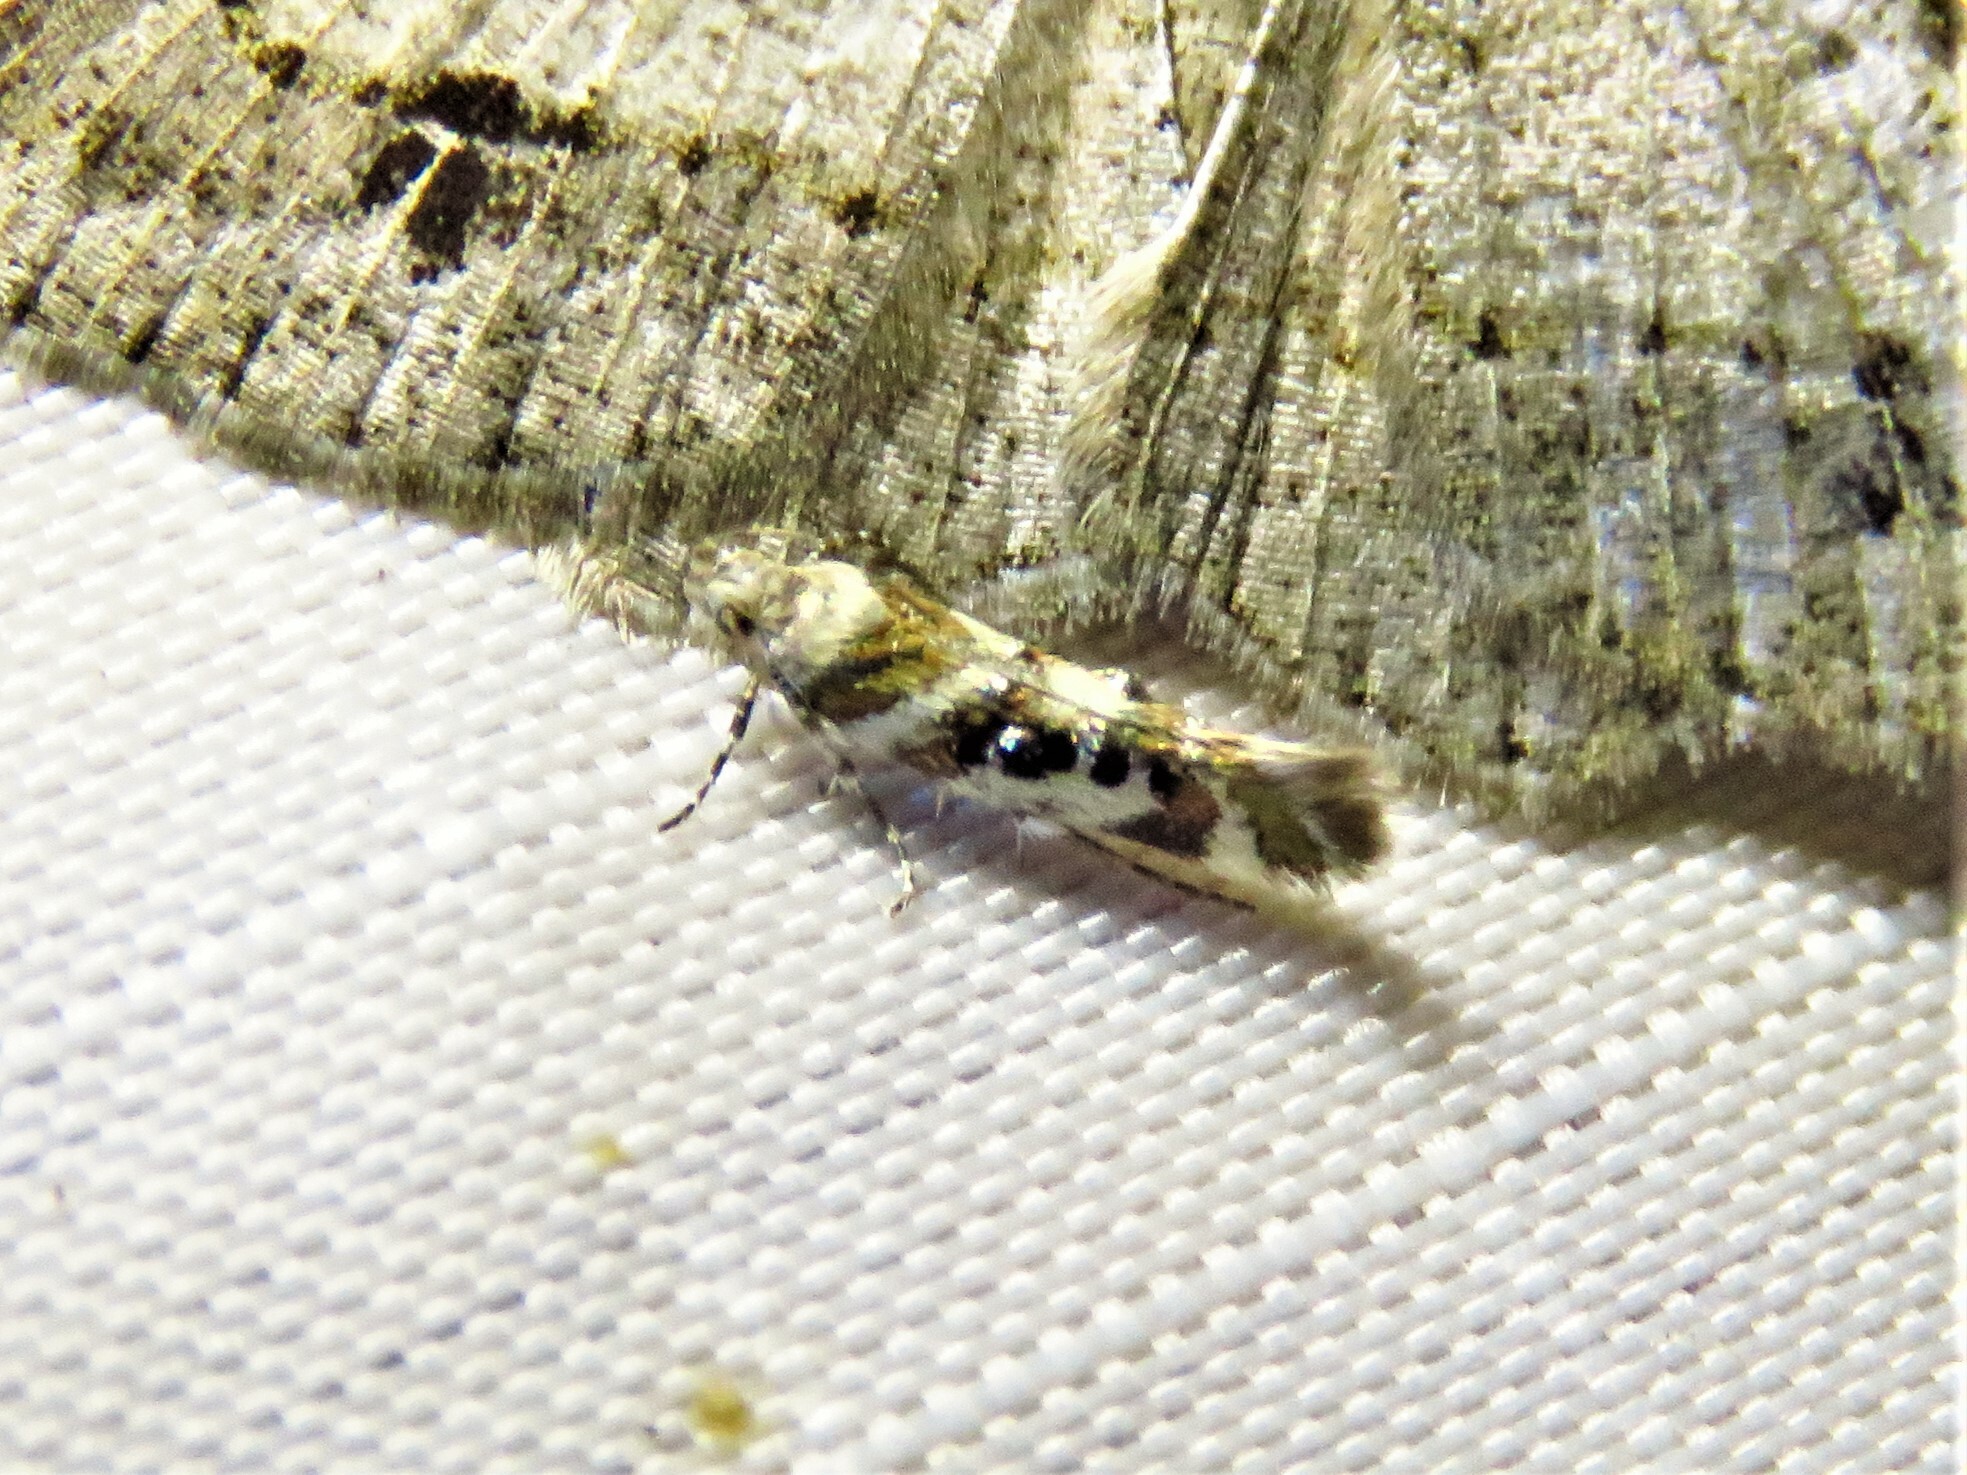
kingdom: Animalia
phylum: Arthropoda
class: Insecta
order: Lepidoptera
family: Gelechiidae
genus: Aristotelia
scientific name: Aristotelia elegantella
